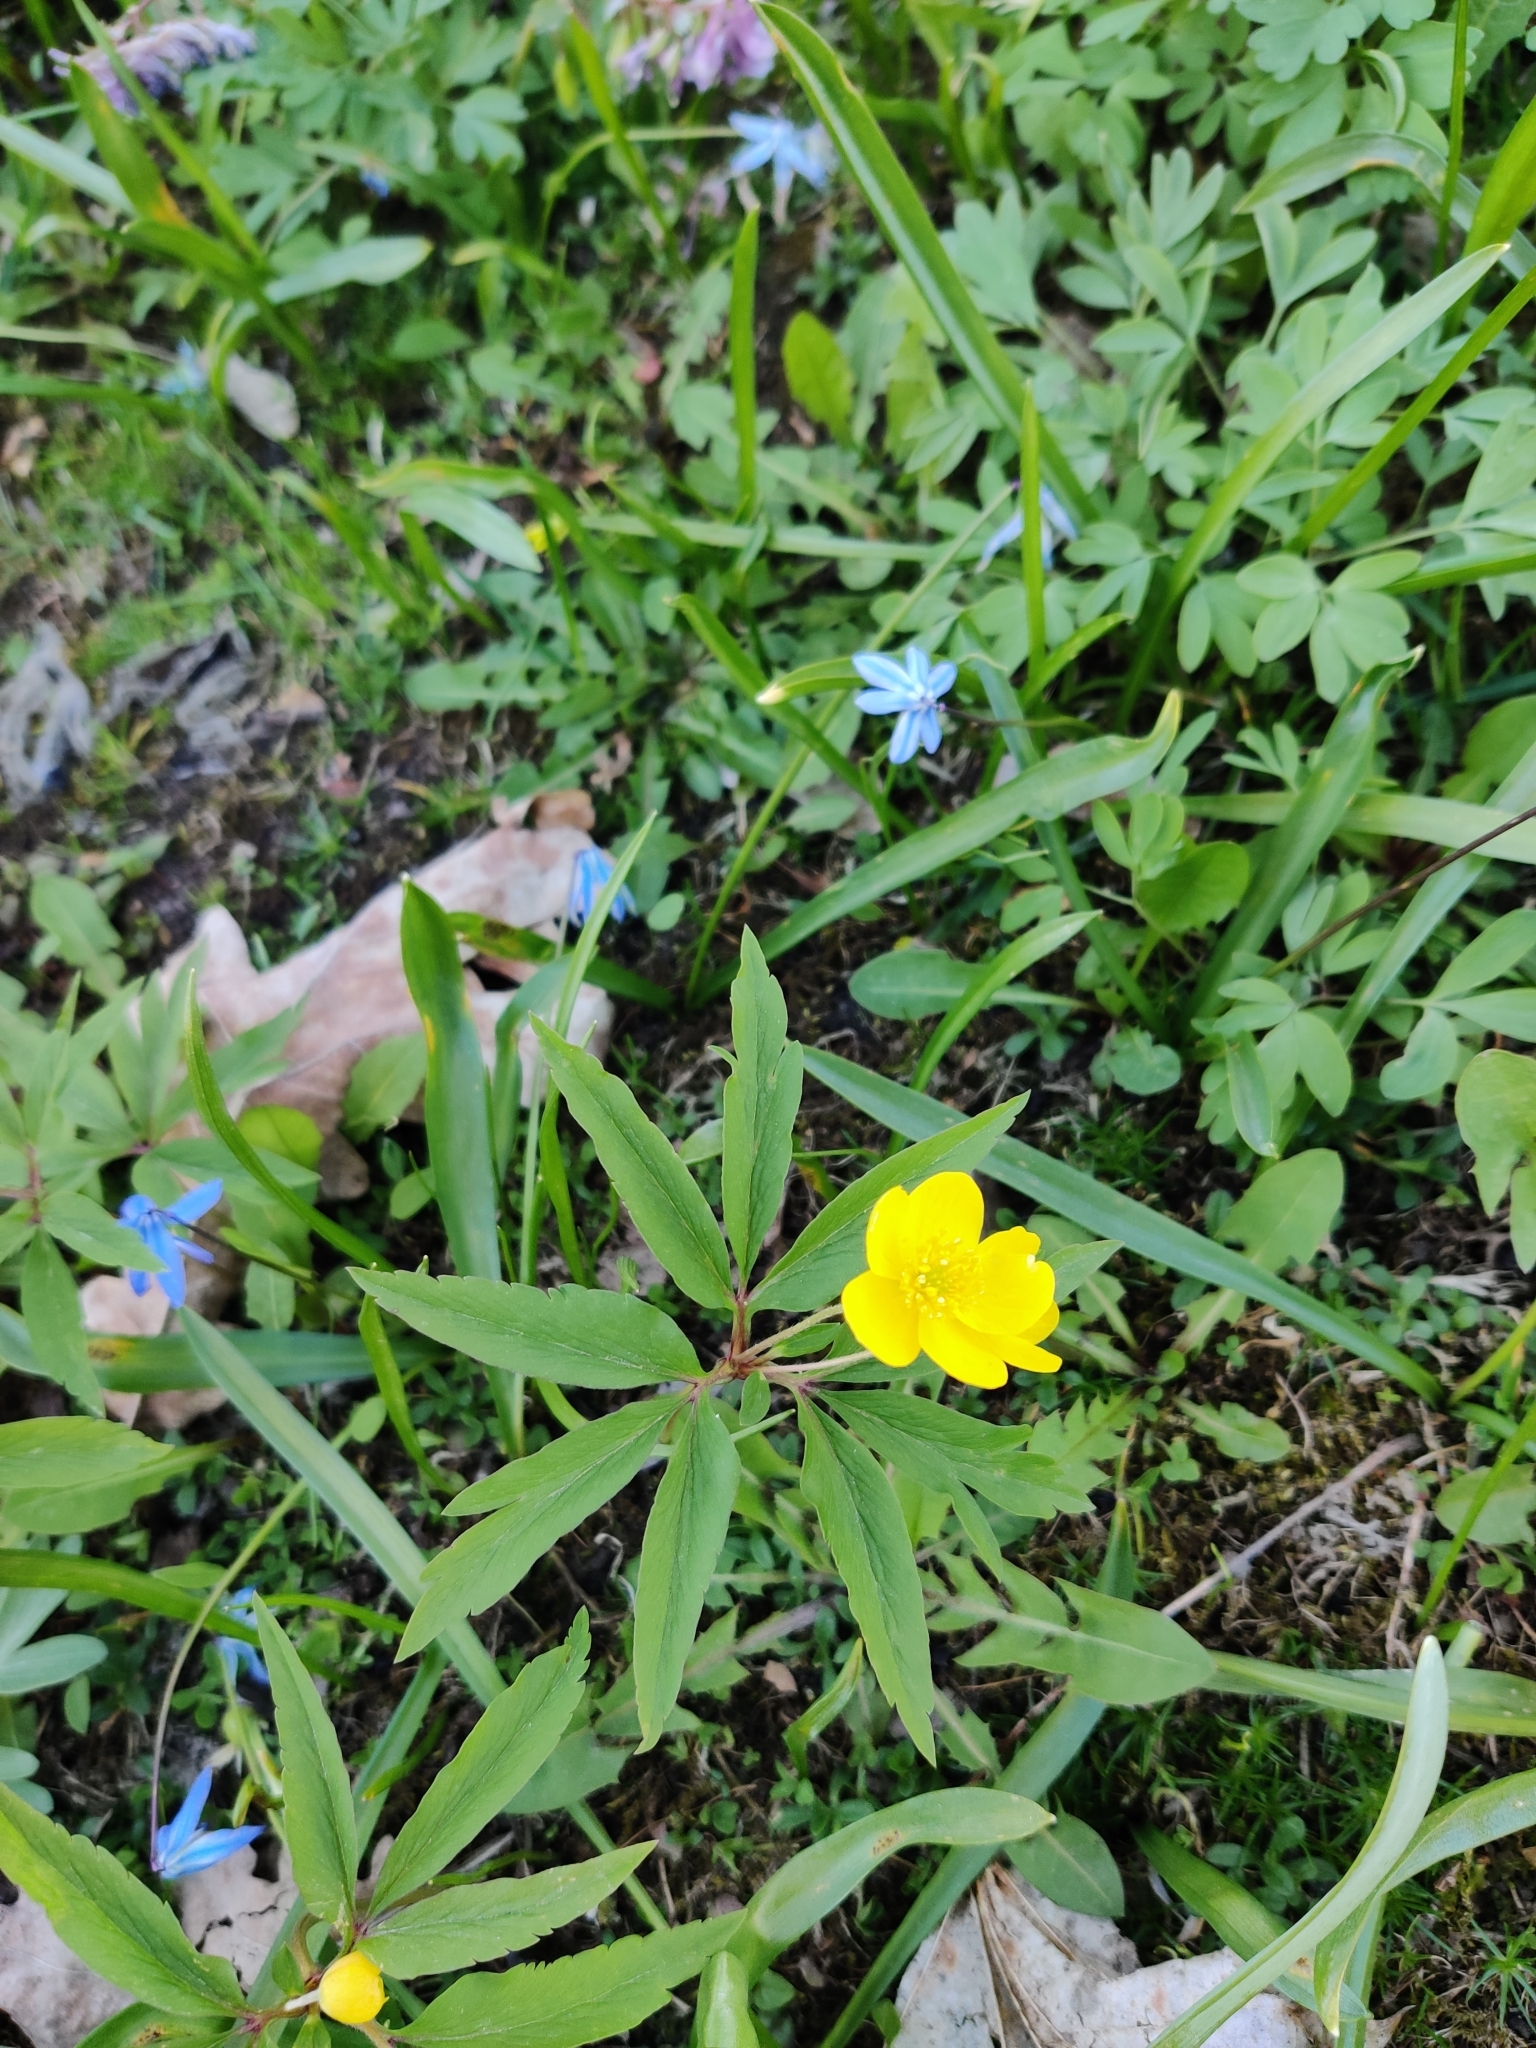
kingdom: Plantae
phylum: Tracheophyta
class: Magnoliopsida
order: Ranunculales
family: Ranunculaceae
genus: Anemone
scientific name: Anemone ranunculoides
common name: Yellow anemone
